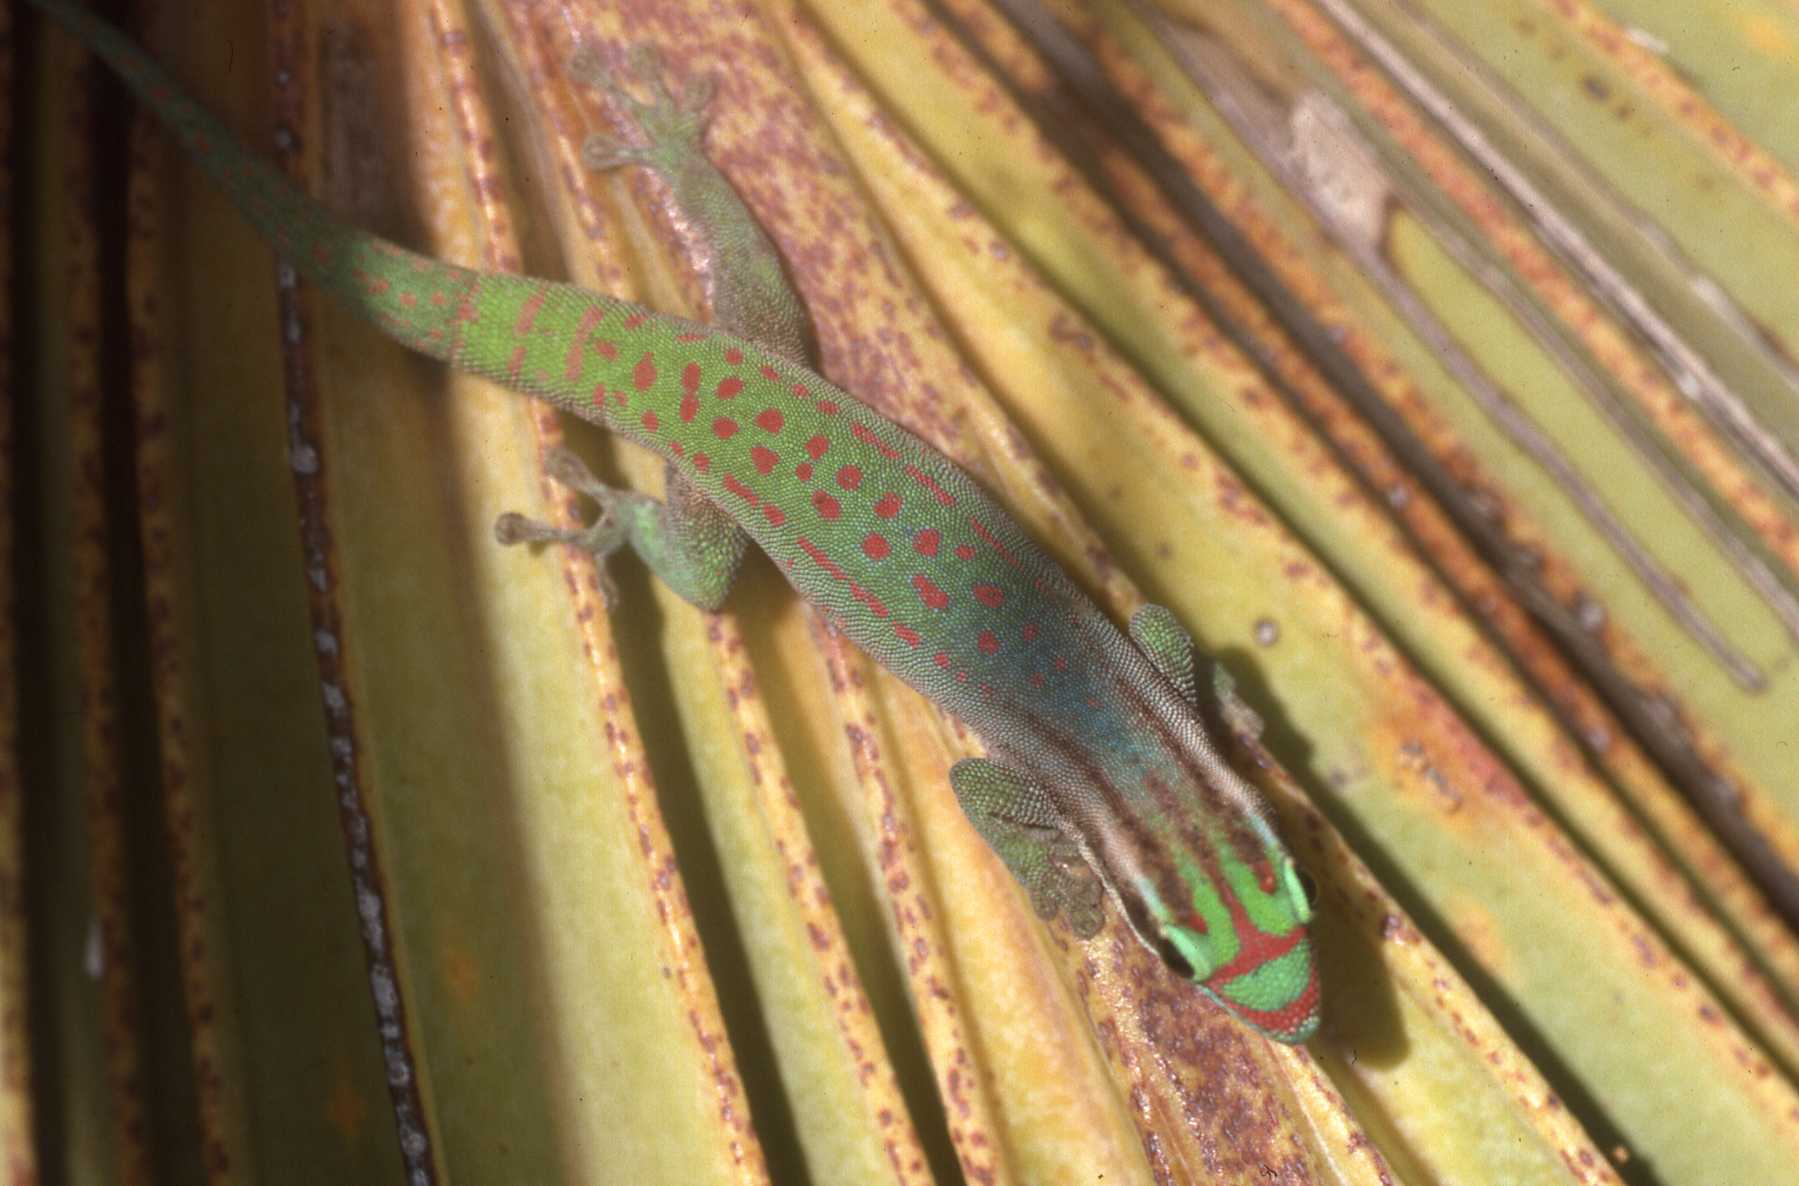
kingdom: Animalia
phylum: Chordata
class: Squamata
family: Gekkonidae
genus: Phelsuma
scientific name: Phelsuma ornata
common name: Ornate day gecko
